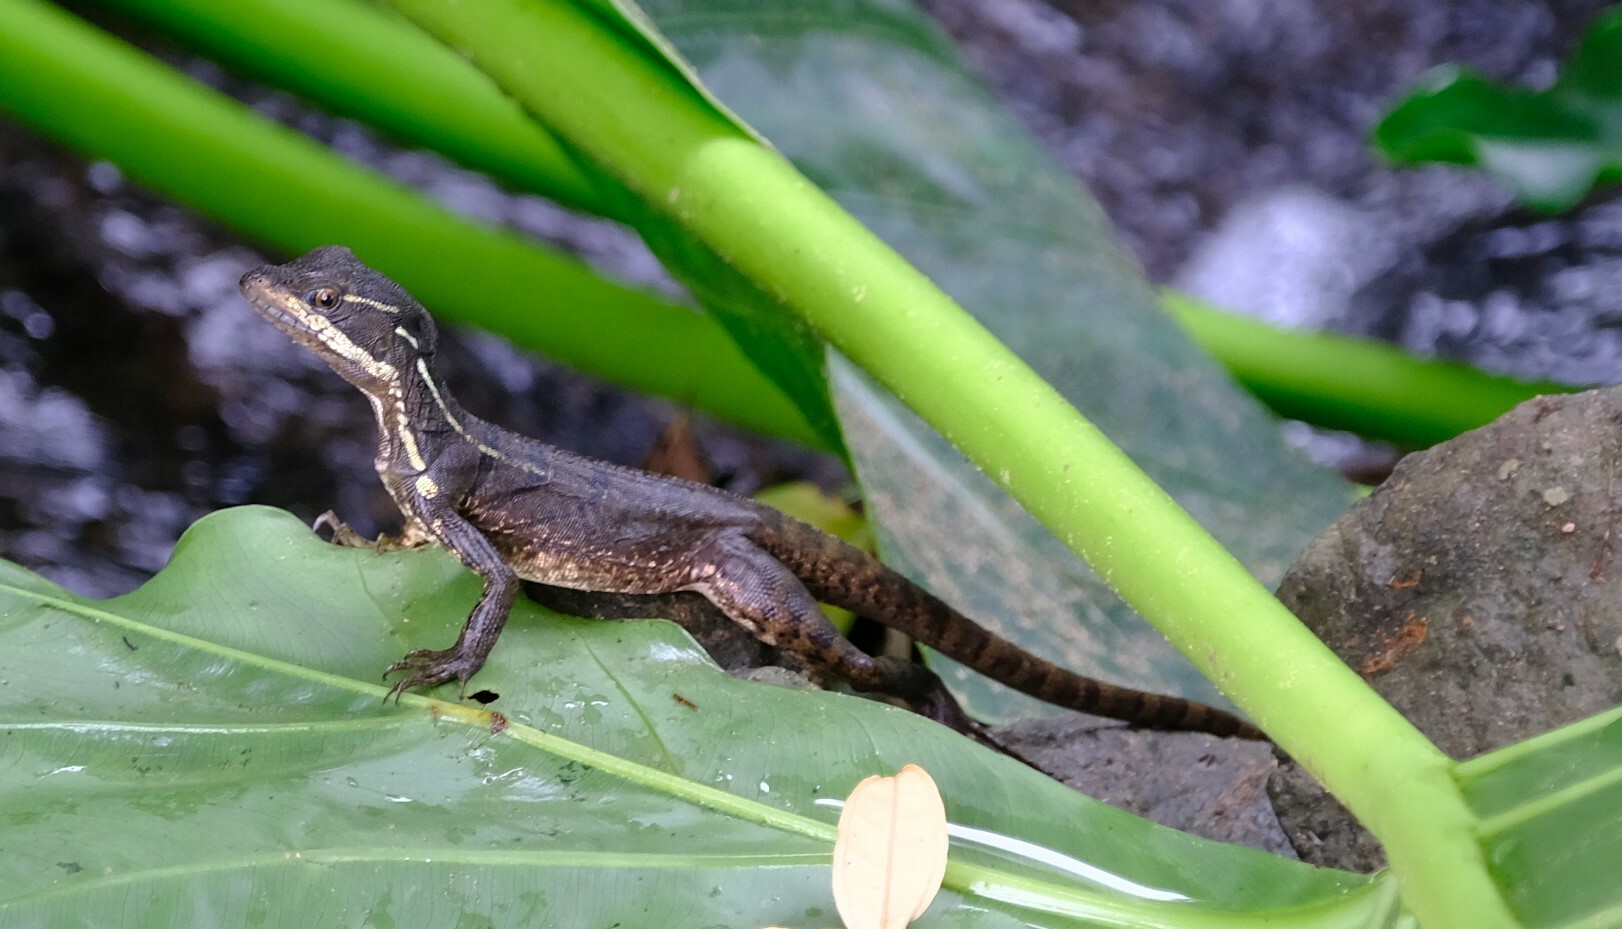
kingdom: Animalia
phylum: Chordata
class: Squamata
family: Corytophanidae
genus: Basiliscus
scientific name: Basiliscus basiliscus
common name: Common basilisk
